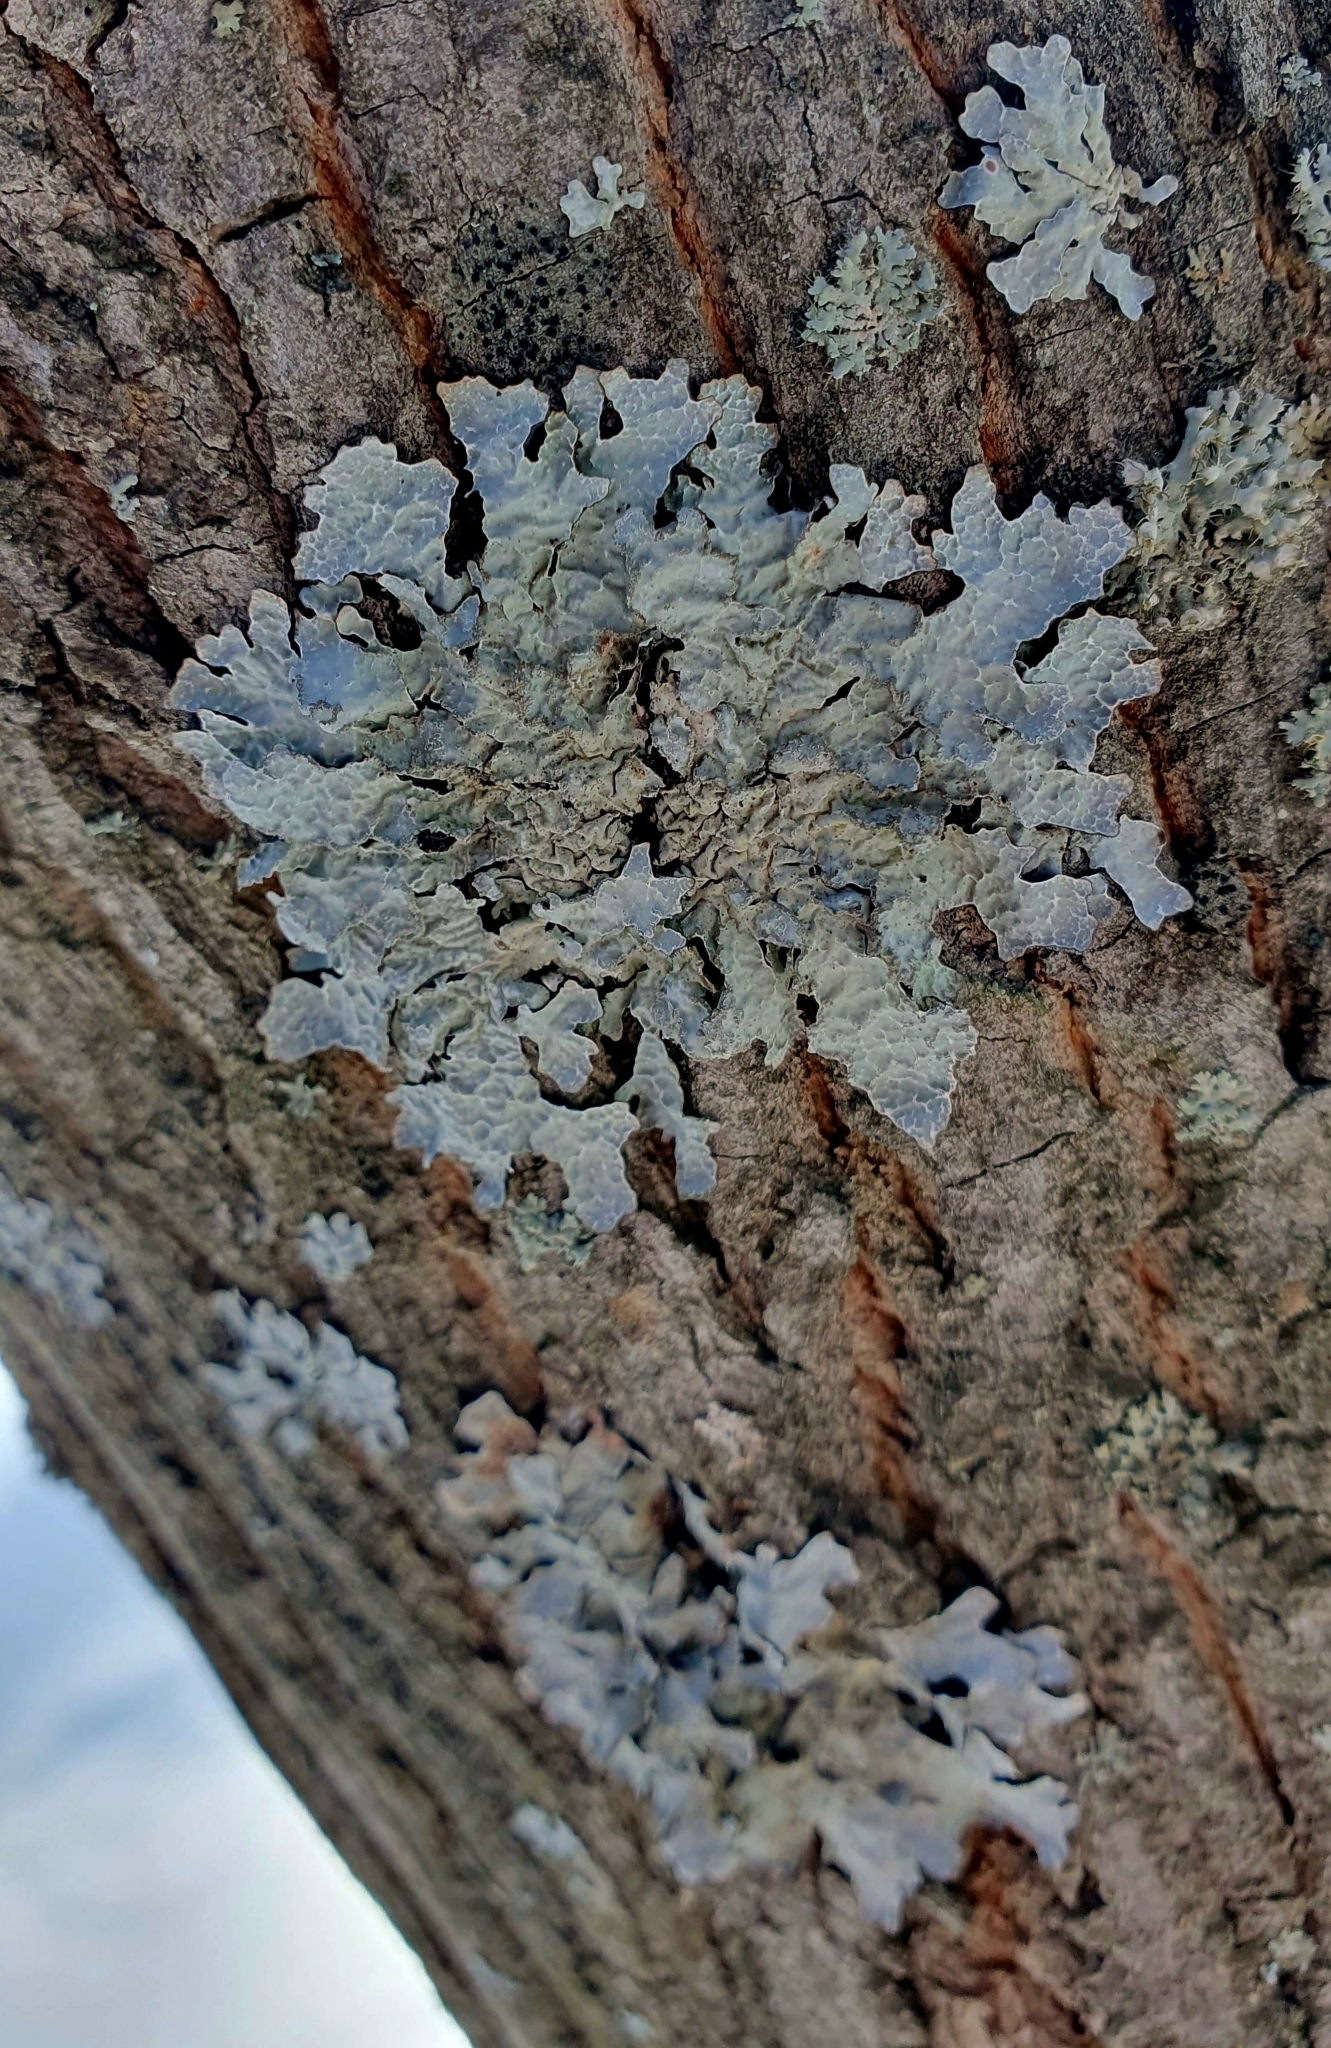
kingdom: Fungi
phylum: Ascomycota
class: Lecanoromycetes
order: Lecanorales
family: Parmeliaceae
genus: Parmelia
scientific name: Parmelia sulcata
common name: Netted shield lichen
